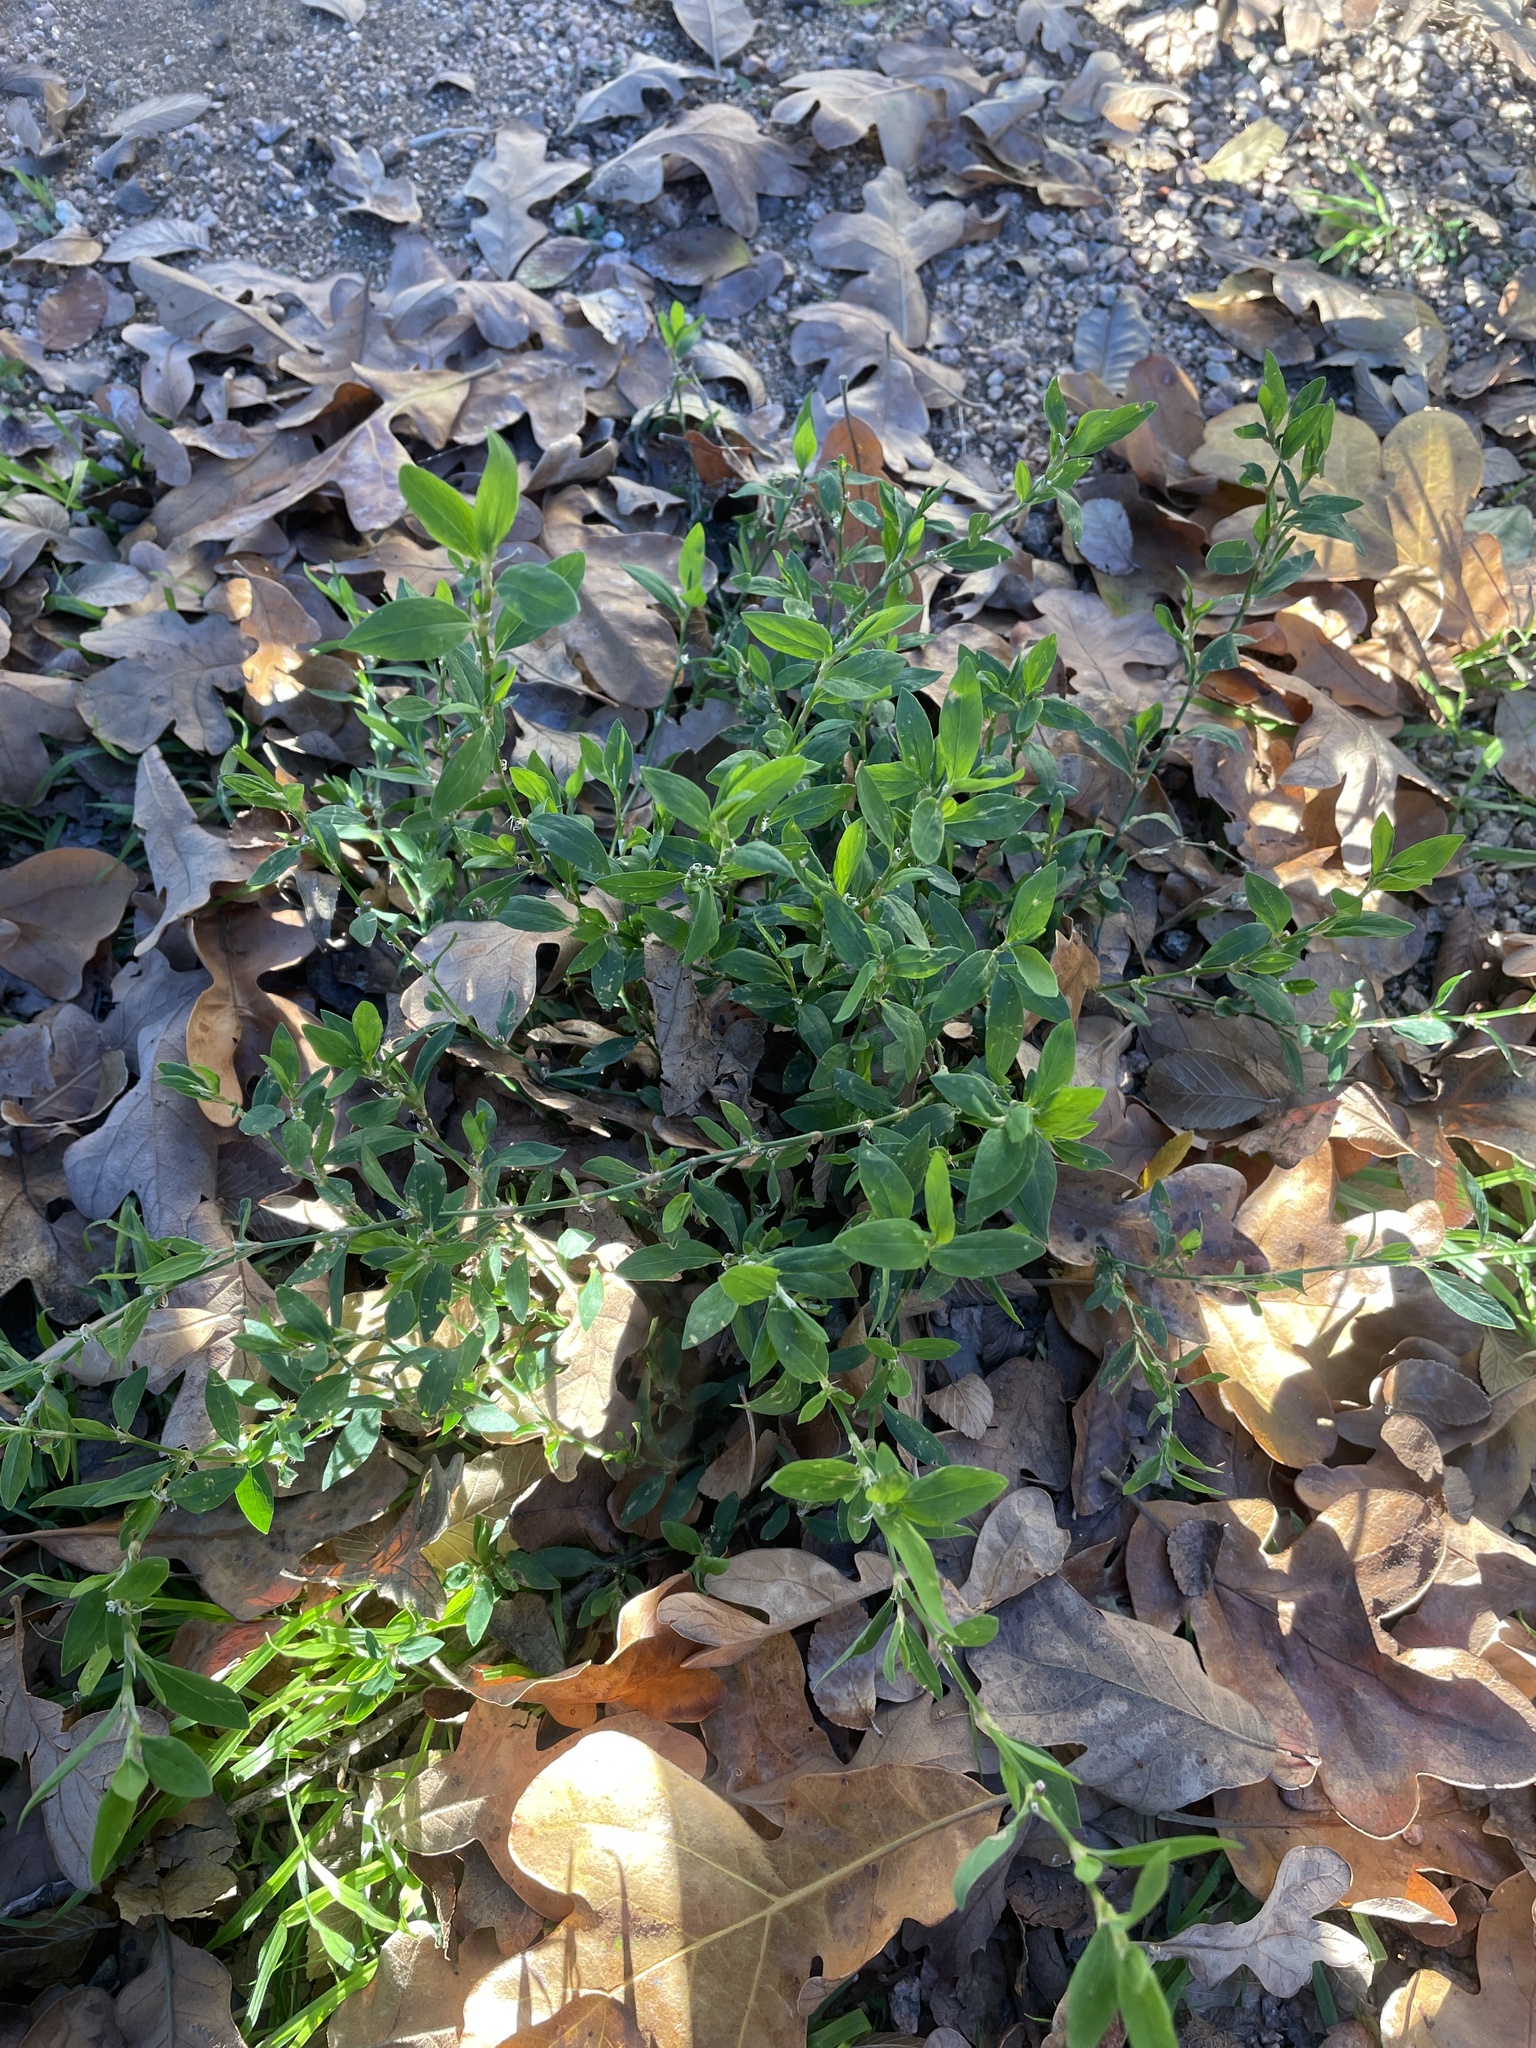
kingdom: Plantae
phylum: Tracheophyta
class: Magnoliopsida
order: Caryophyllales
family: Polygonaceae
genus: Polygonum
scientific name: Polygonum aviculare
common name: Prostrate knotweed
